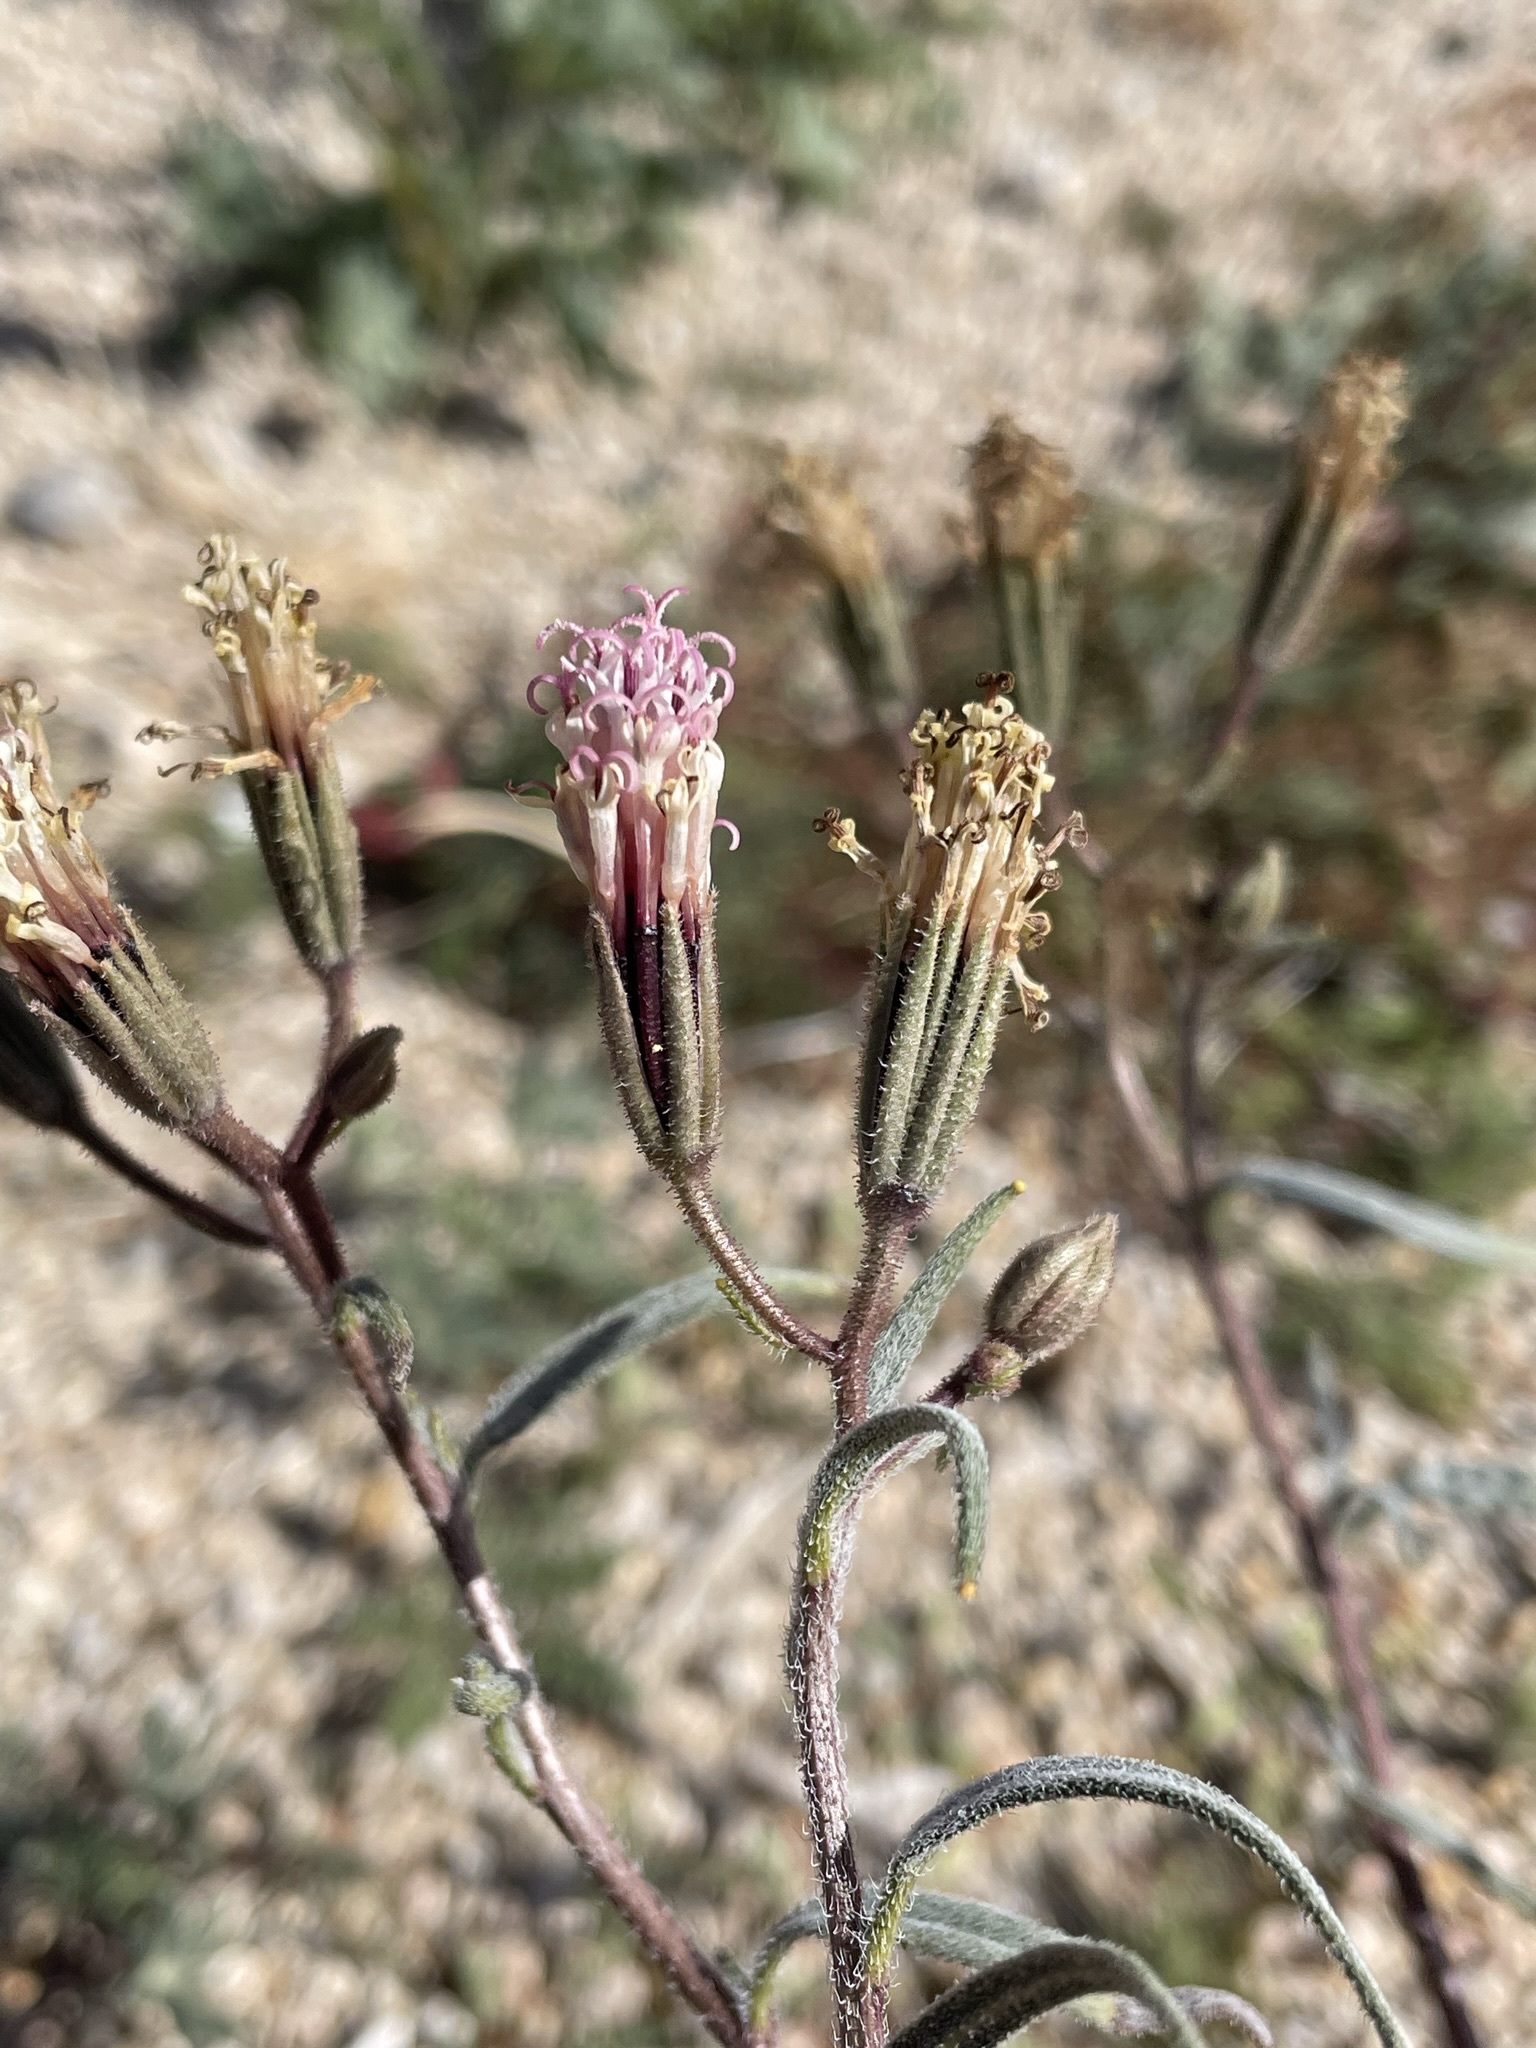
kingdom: Plantae
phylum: Tracheophyta
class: Magnoliopsida
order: Asterales
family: Asteraceae
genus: Palafoxia
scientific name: Palafoxia arida
